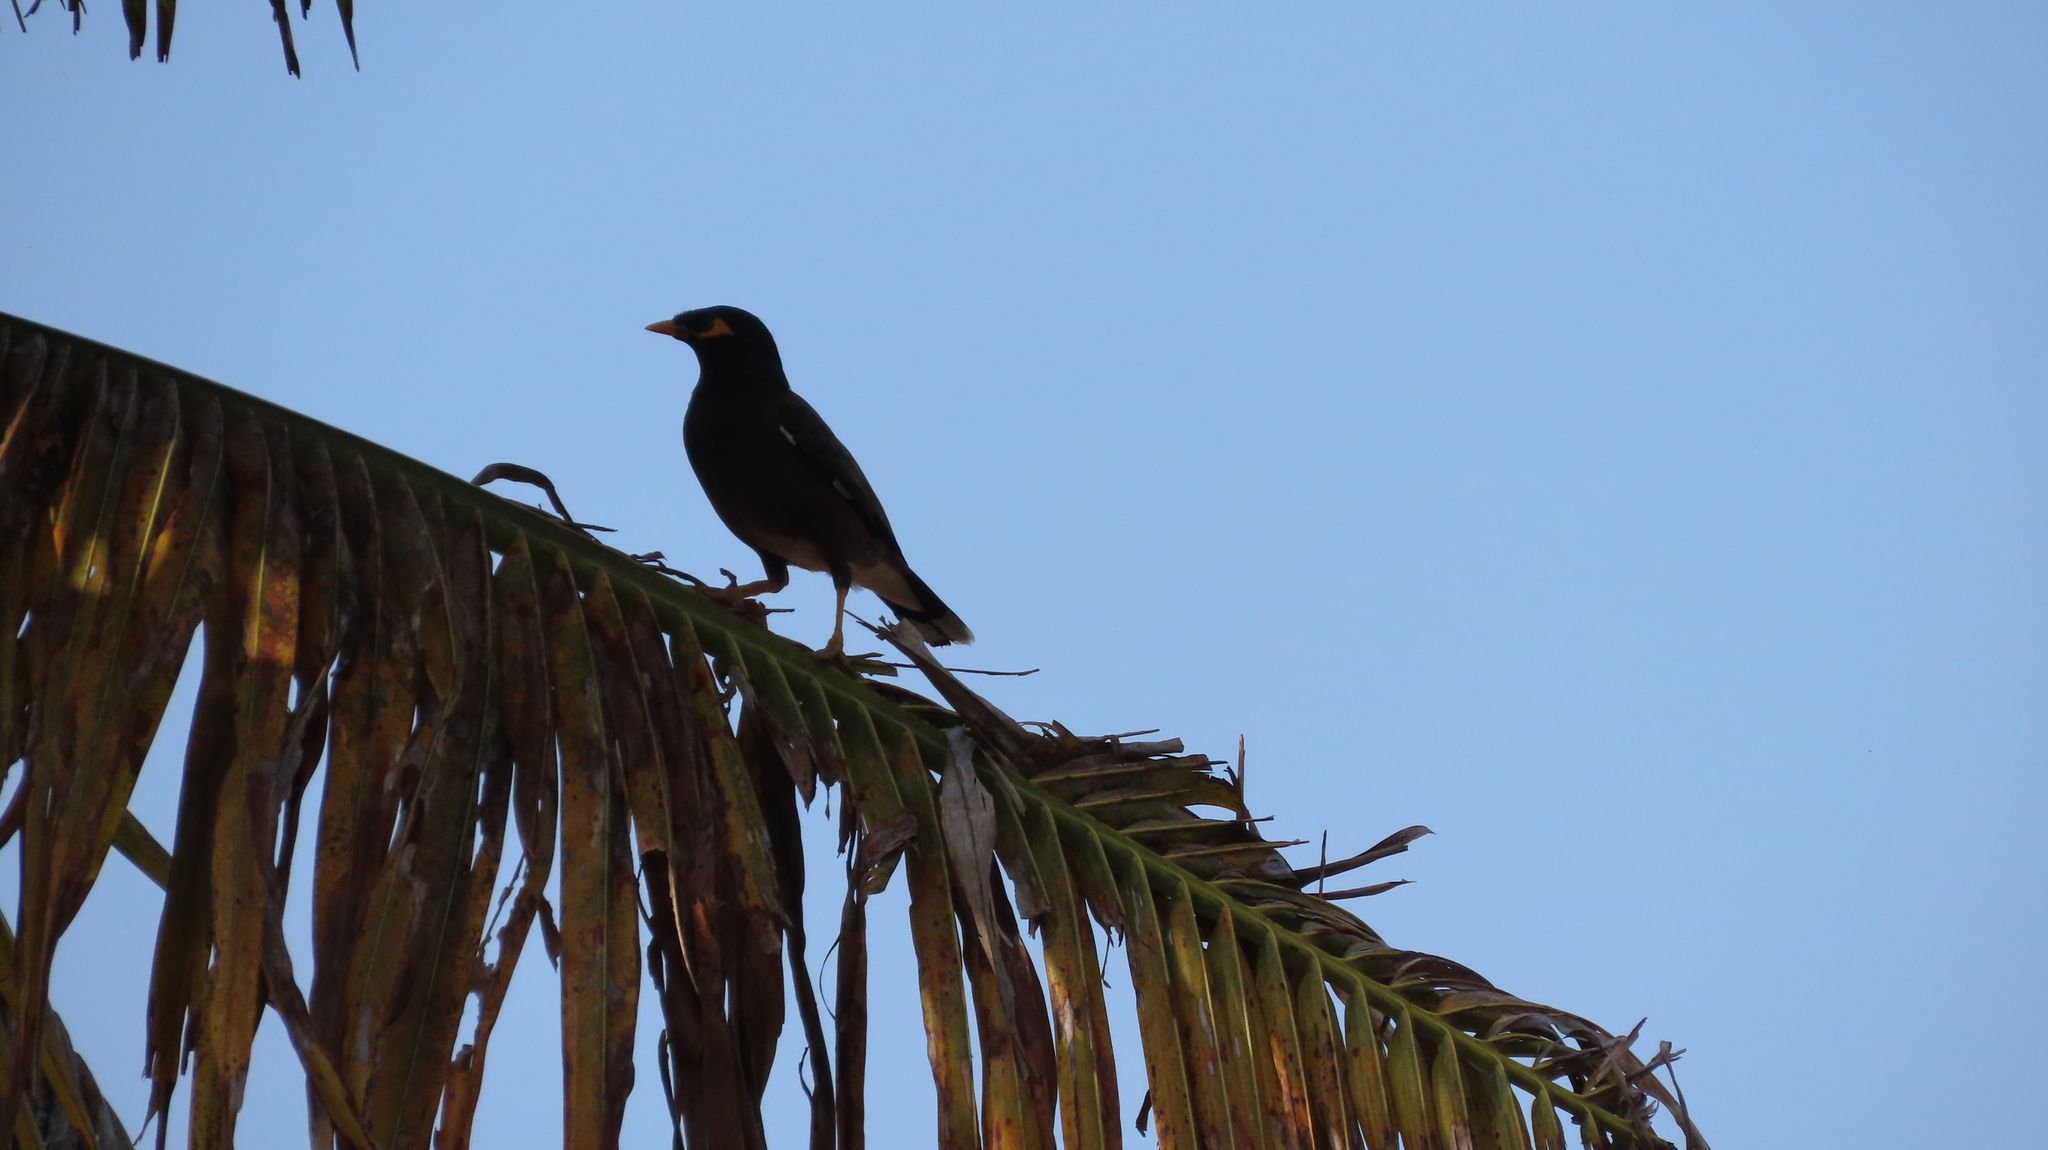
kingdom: Animalia
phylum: Chordata
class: Aves
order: Passeriformes
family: Sturnidae
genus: Acridotheres
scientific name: Acridotheres tristis
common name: Common myna
